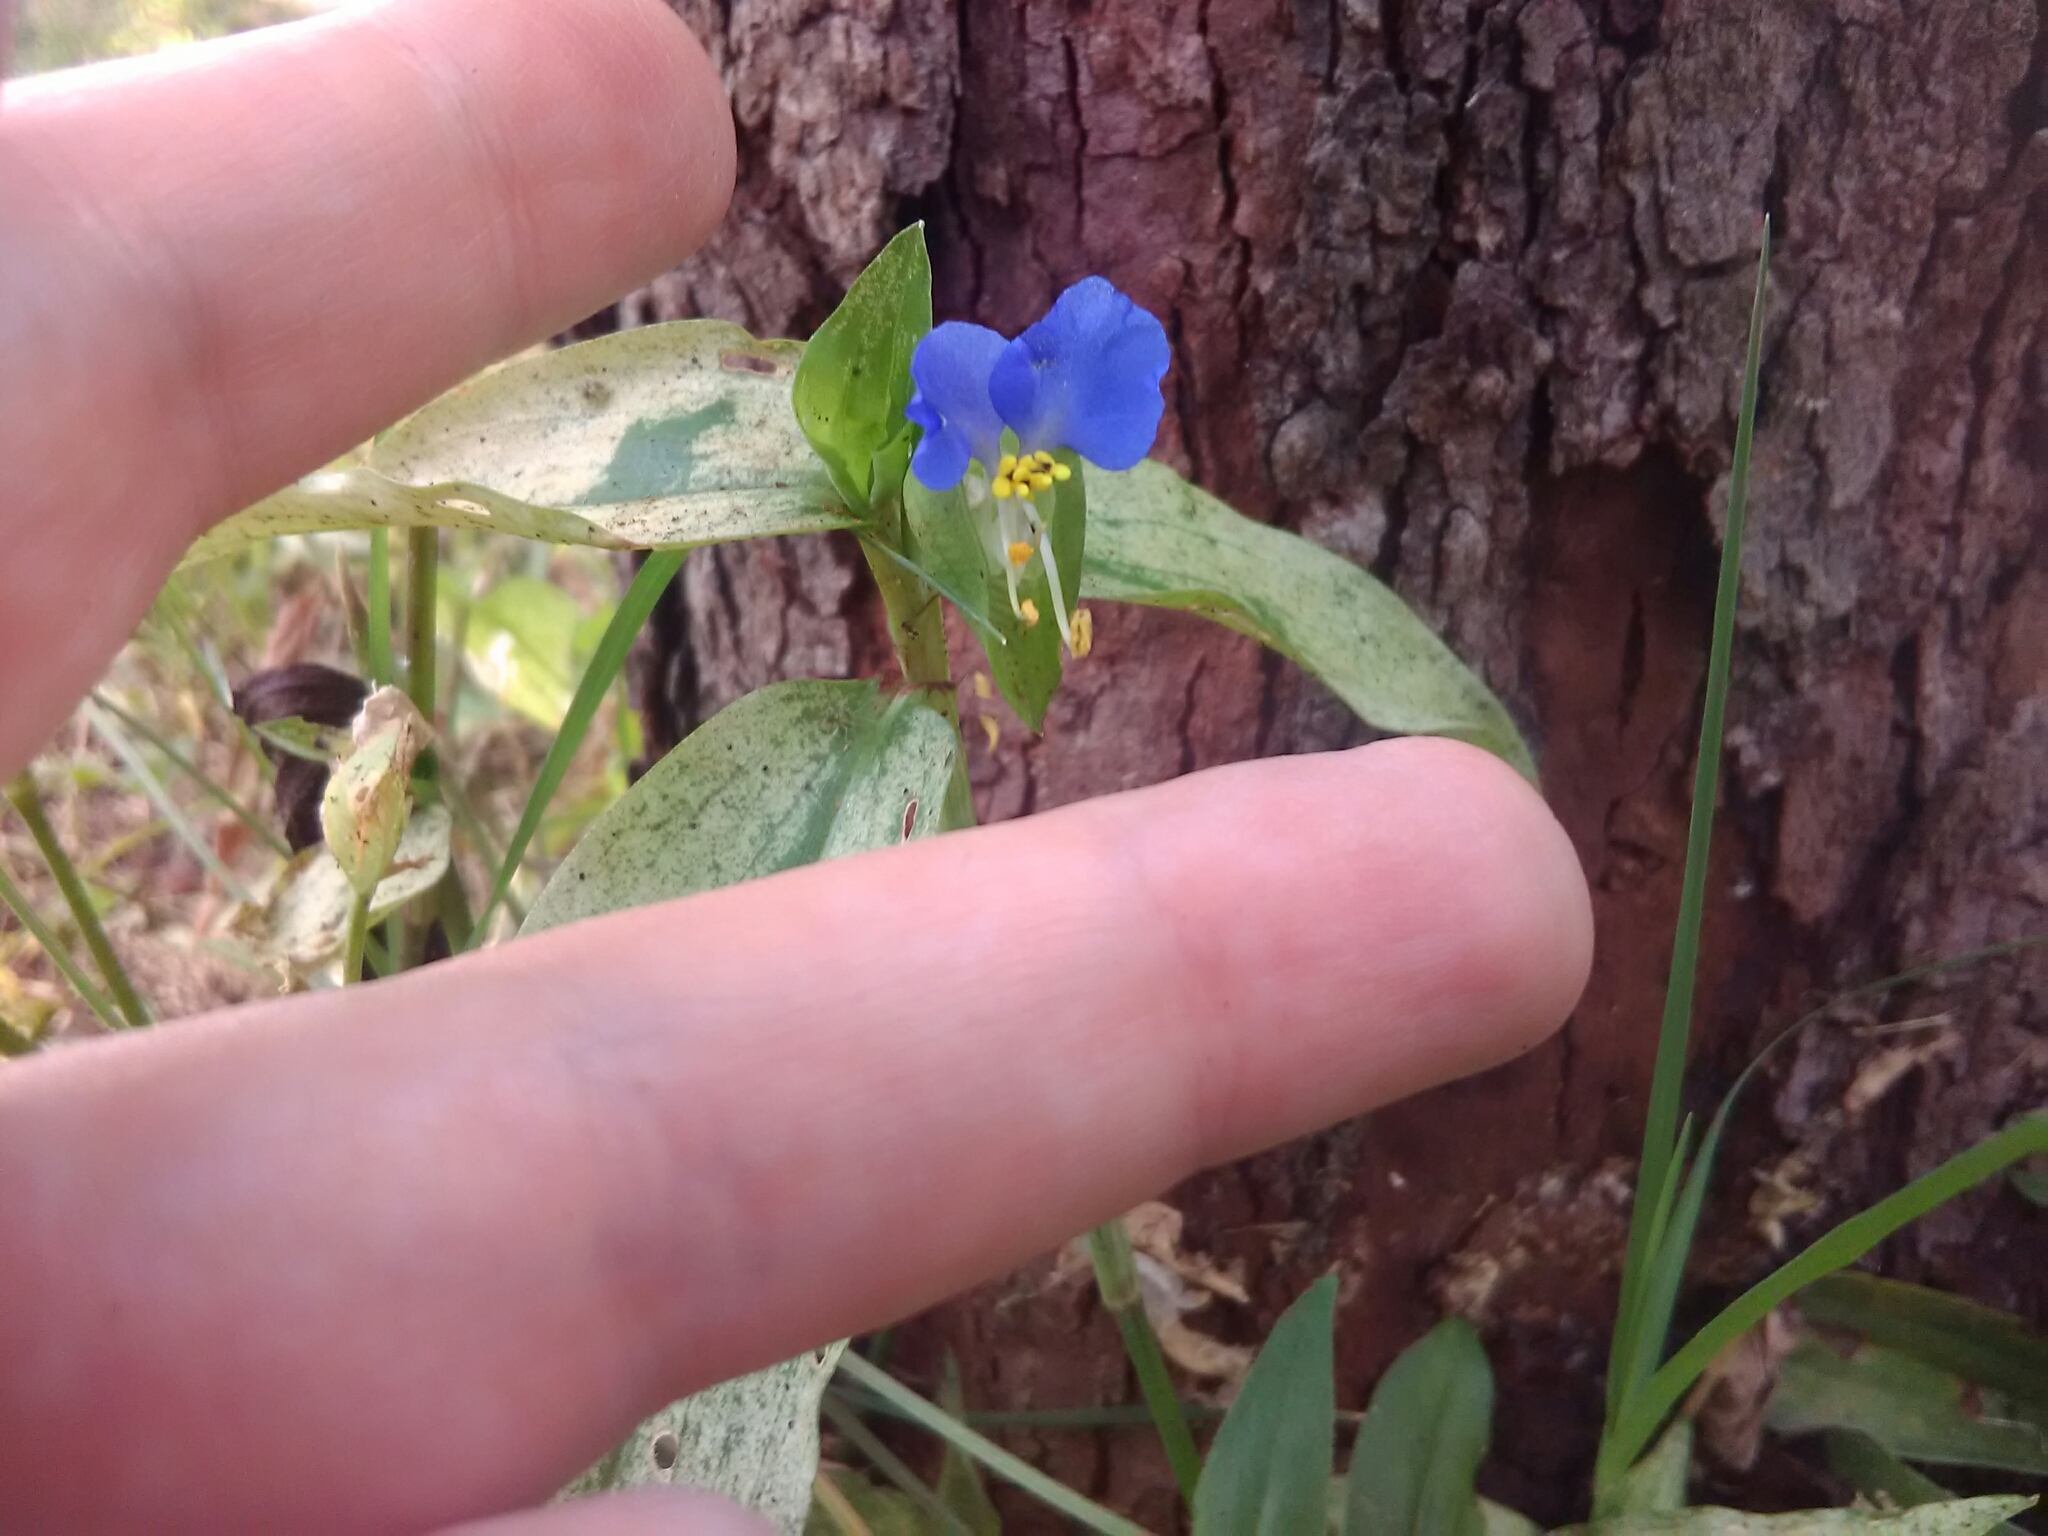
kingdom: Plantae
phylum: Tracheophyta
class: Liliopsida
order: Commelinales
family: Commelinaceae
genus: Commelina
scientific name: Commelina communis
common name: Asiatic dayflower
